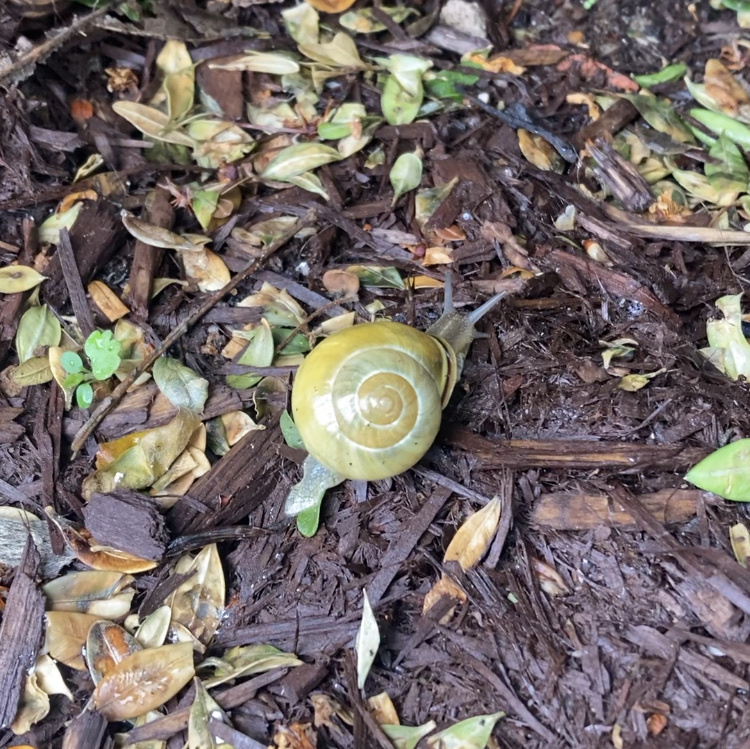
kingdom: Animalia
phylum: Mollusca
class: Gastropoda
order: Stylommatophora
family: Helicidae
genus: Cepaea
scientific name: Cepaea nemoralis
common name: Grovesnail
